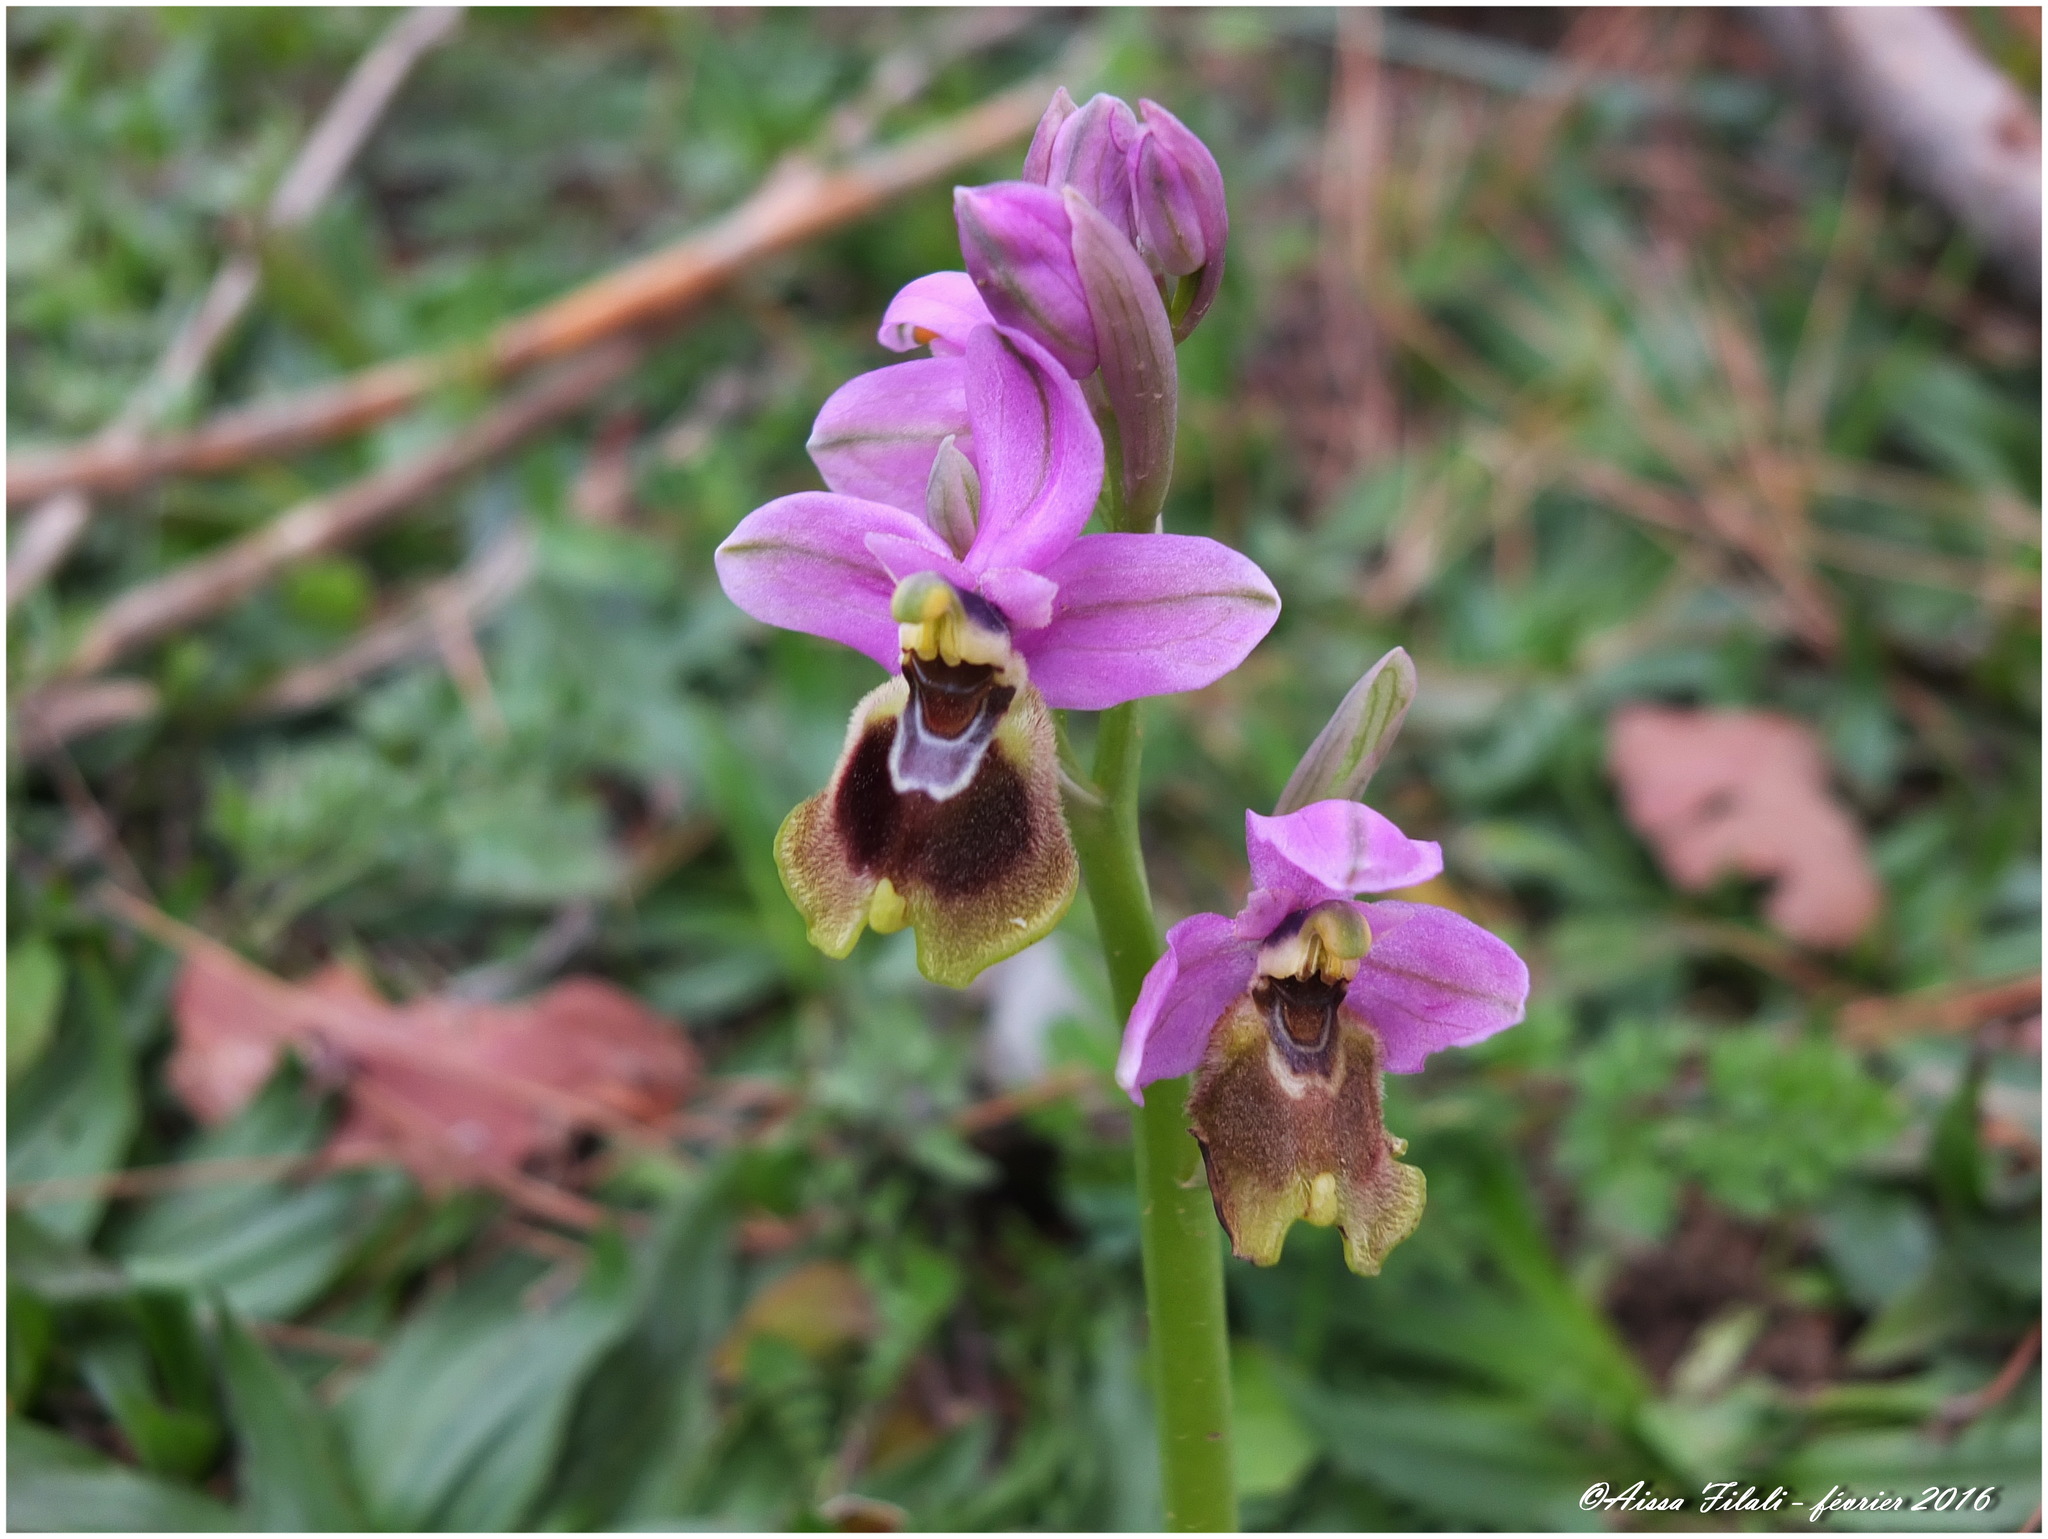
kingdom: Plantae
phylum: Tracheophyta
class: Liliopsida
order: Asparagales
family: Orchidaceae
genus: Ophrys
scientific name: Ophrys tenthredinifera
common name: Sawfly orchid
